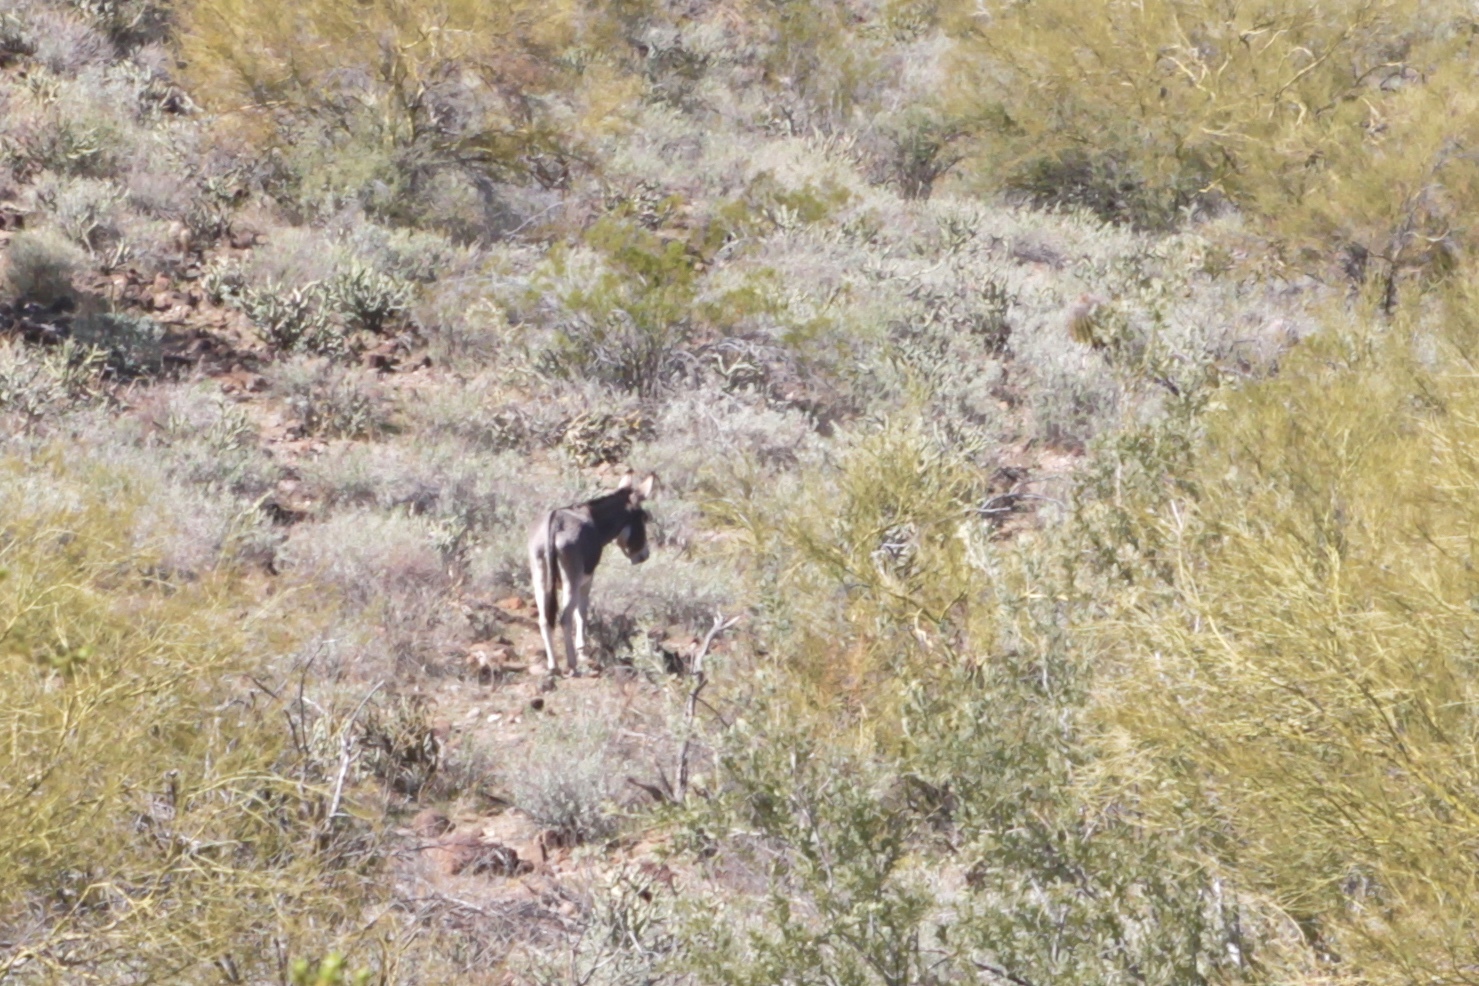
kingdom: Animalia
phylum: Chordata
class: Mammalia
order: Perissodactyla
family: Equidae
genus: Equus
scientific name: Equus asinus
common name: Ass
